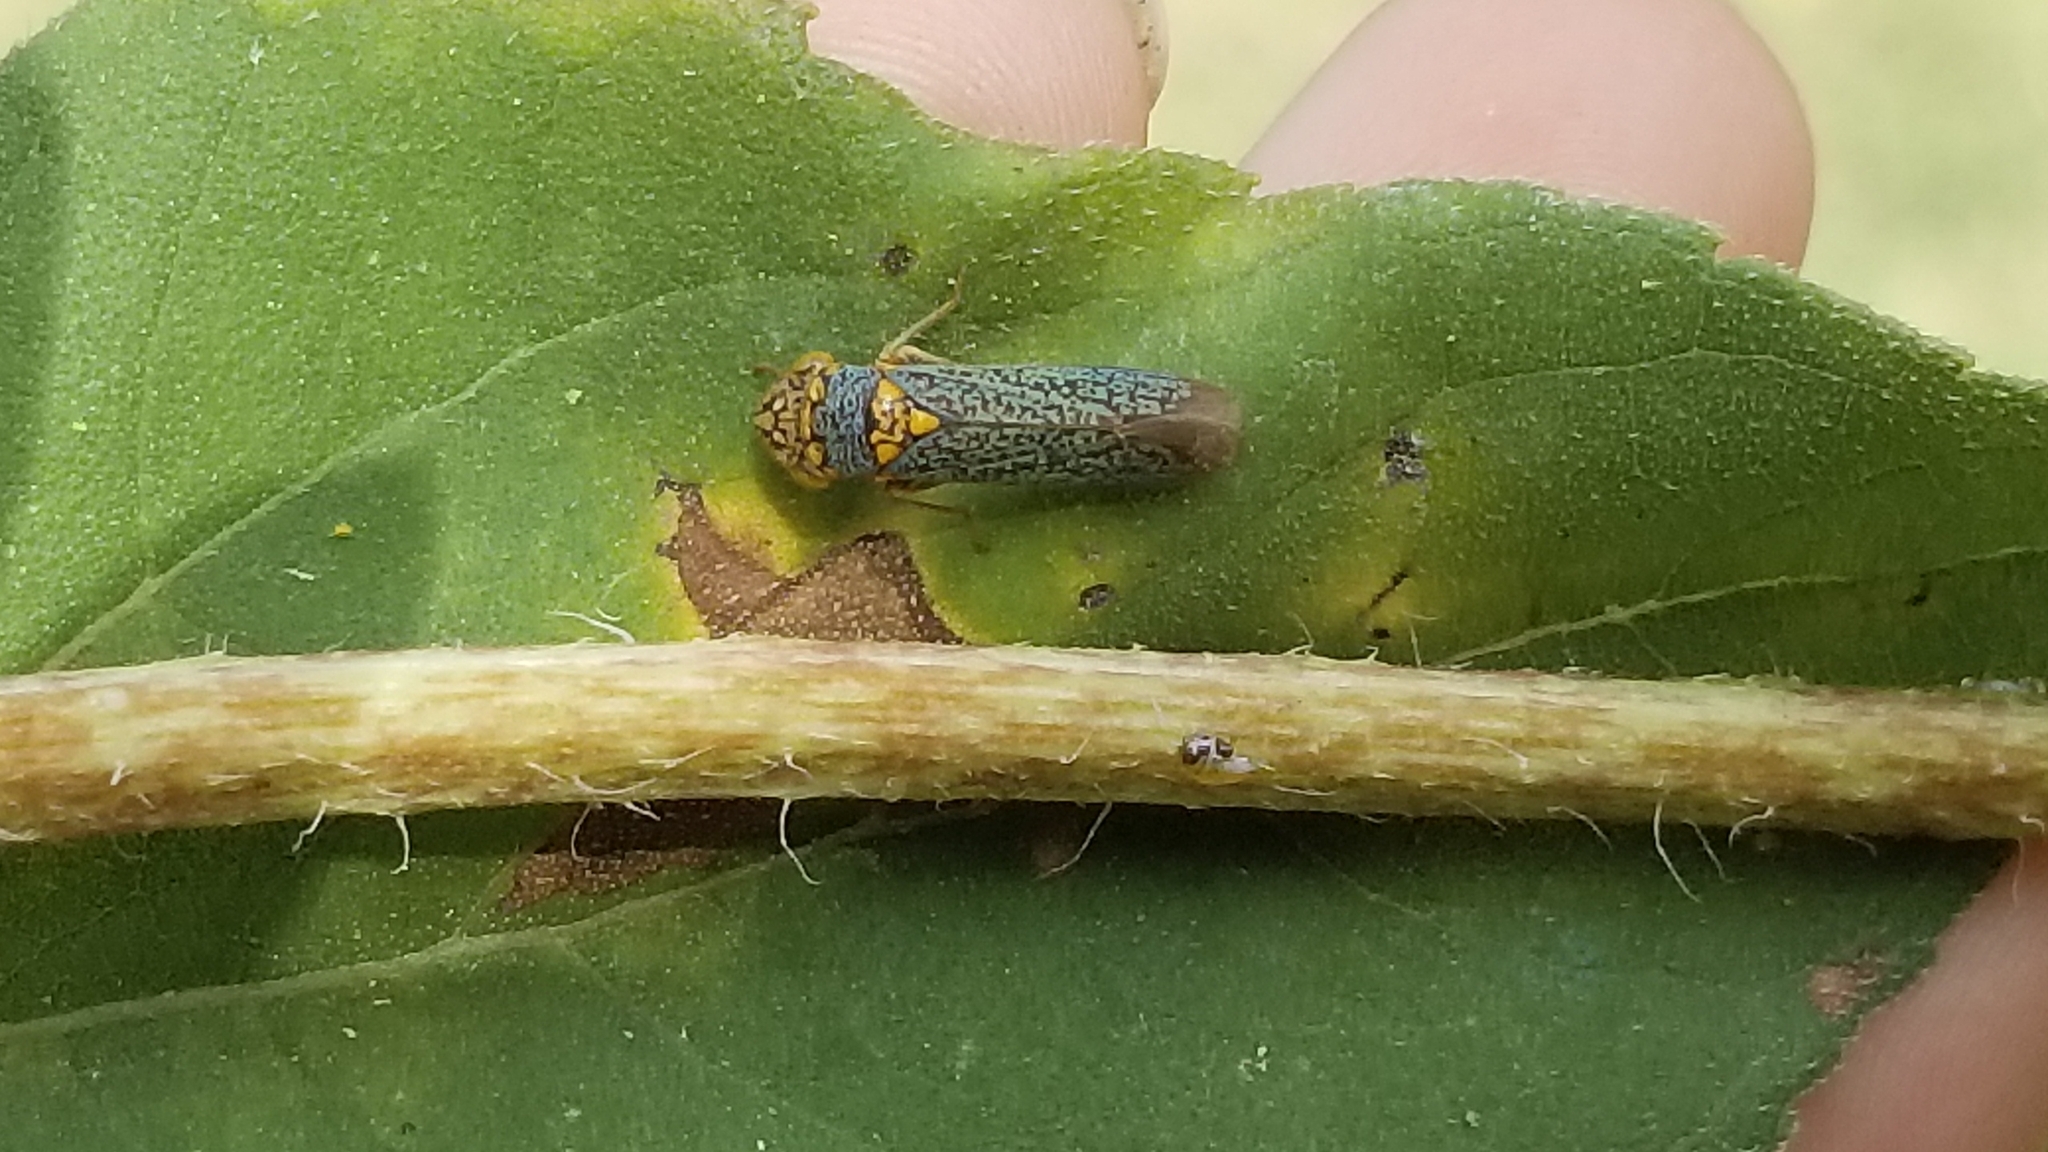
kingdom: Animalia
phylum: Arthropoda
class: Insecta
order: Hemiptera
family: Cicadellidae
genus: Oncometopia
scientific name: Oncometopia orbona
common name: Broad-headed sharpshooter
